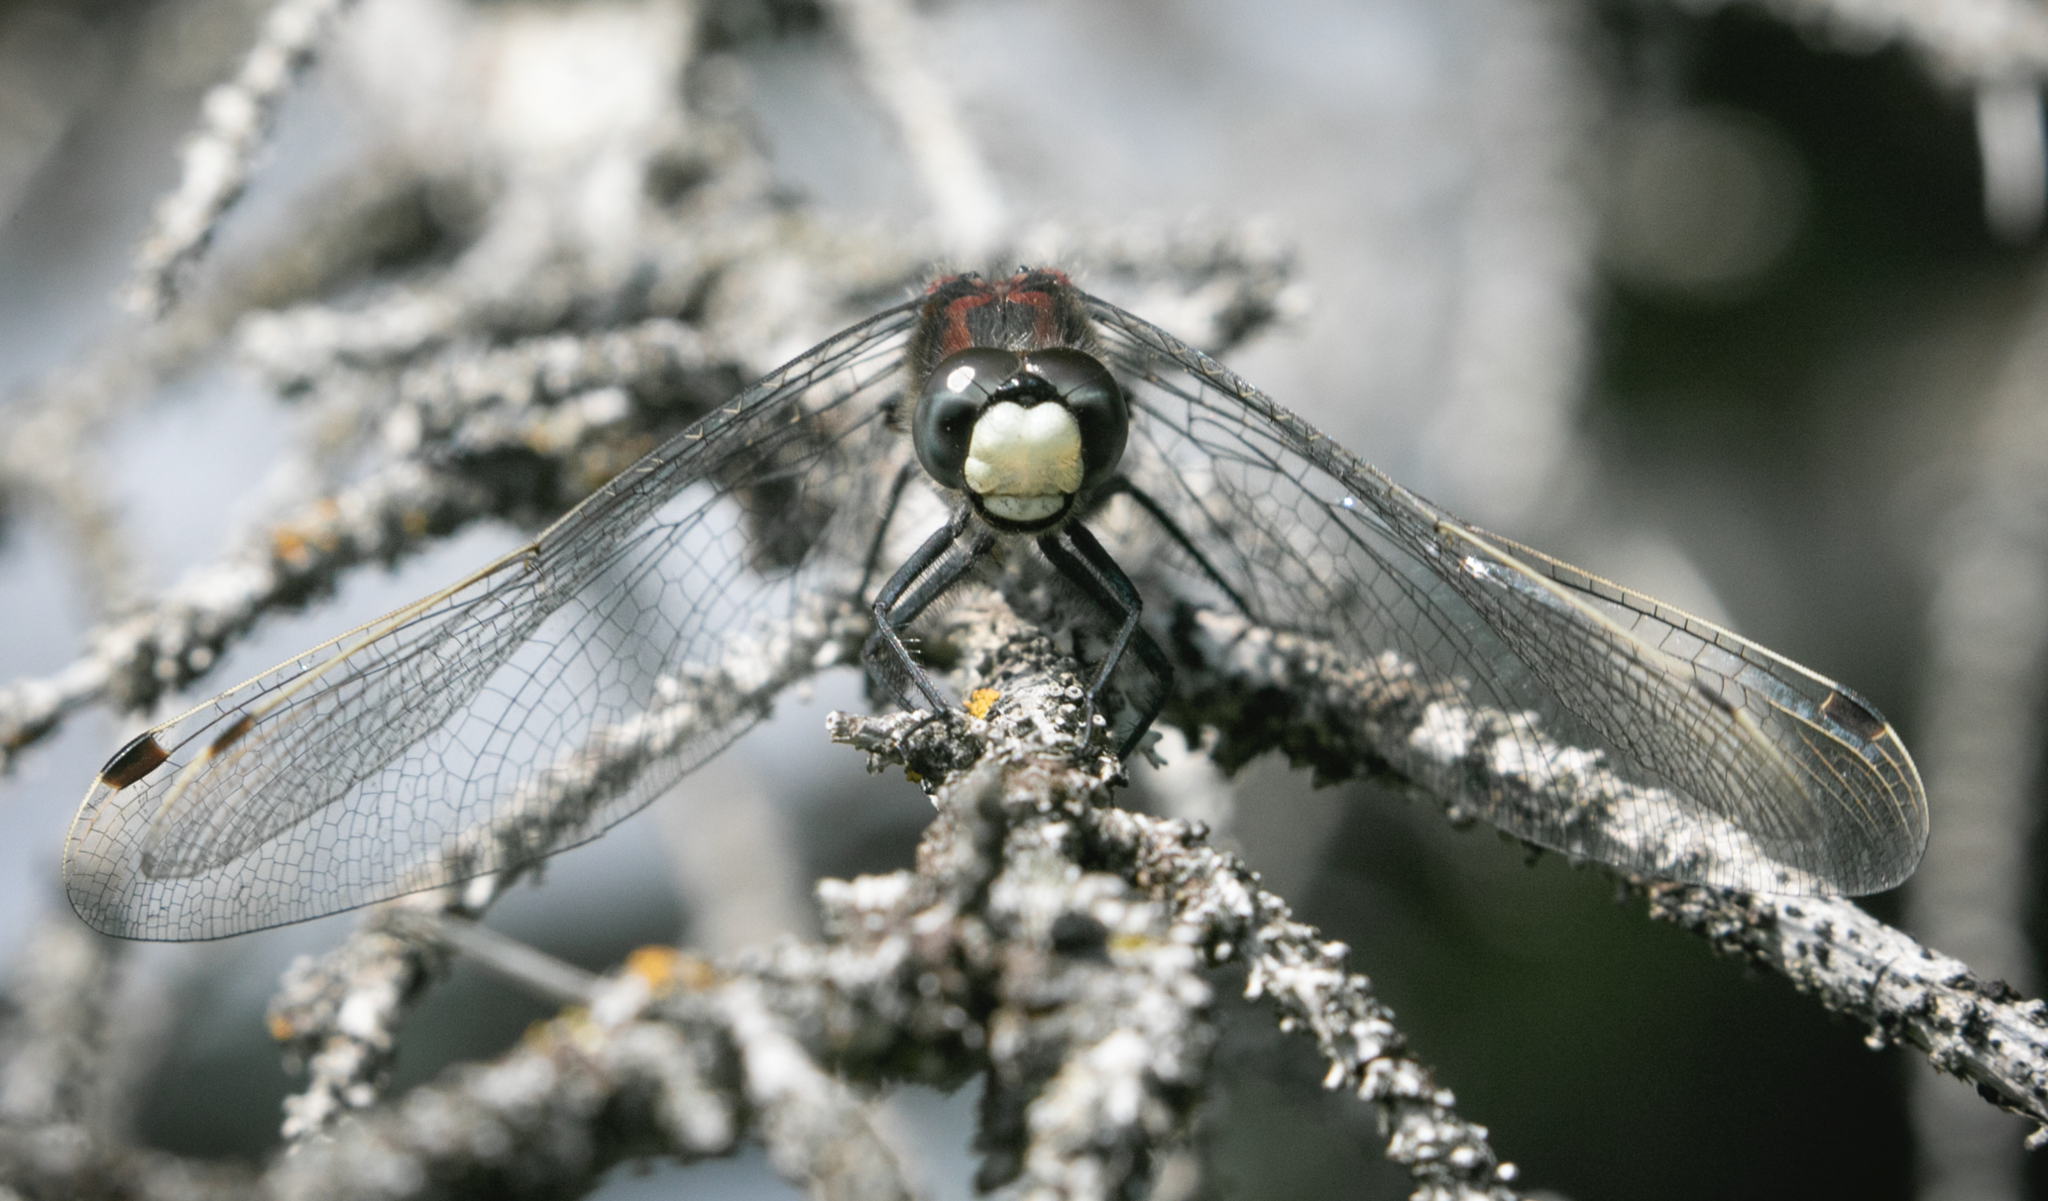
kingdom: Animalia
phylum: Arthropoda
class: Insecta
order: Odonata
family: Libellulidae
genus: Leucorrhinia
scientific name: Leucorrhinia dubia
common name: White-faced darter
